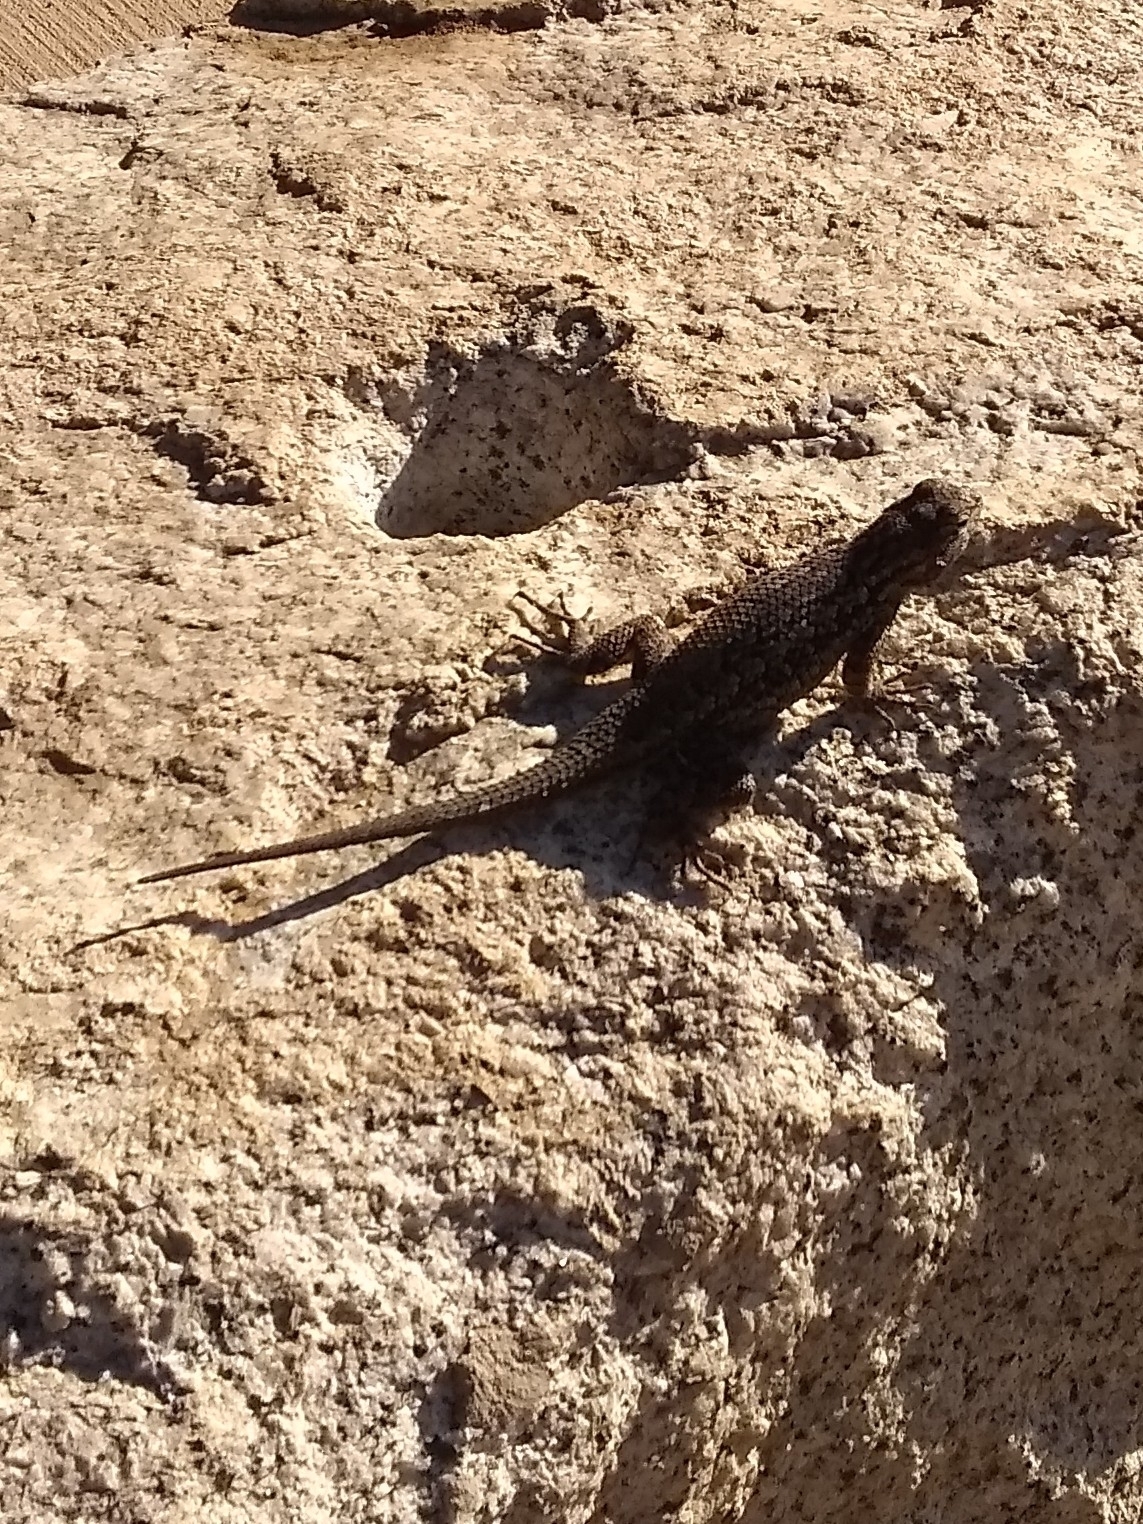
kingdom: Animalia
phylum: Chordata
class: Squamata
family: Phrynosomatidae
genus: Sceloporus
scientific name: Sceloporus occidentalis
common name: Western fence lizard
